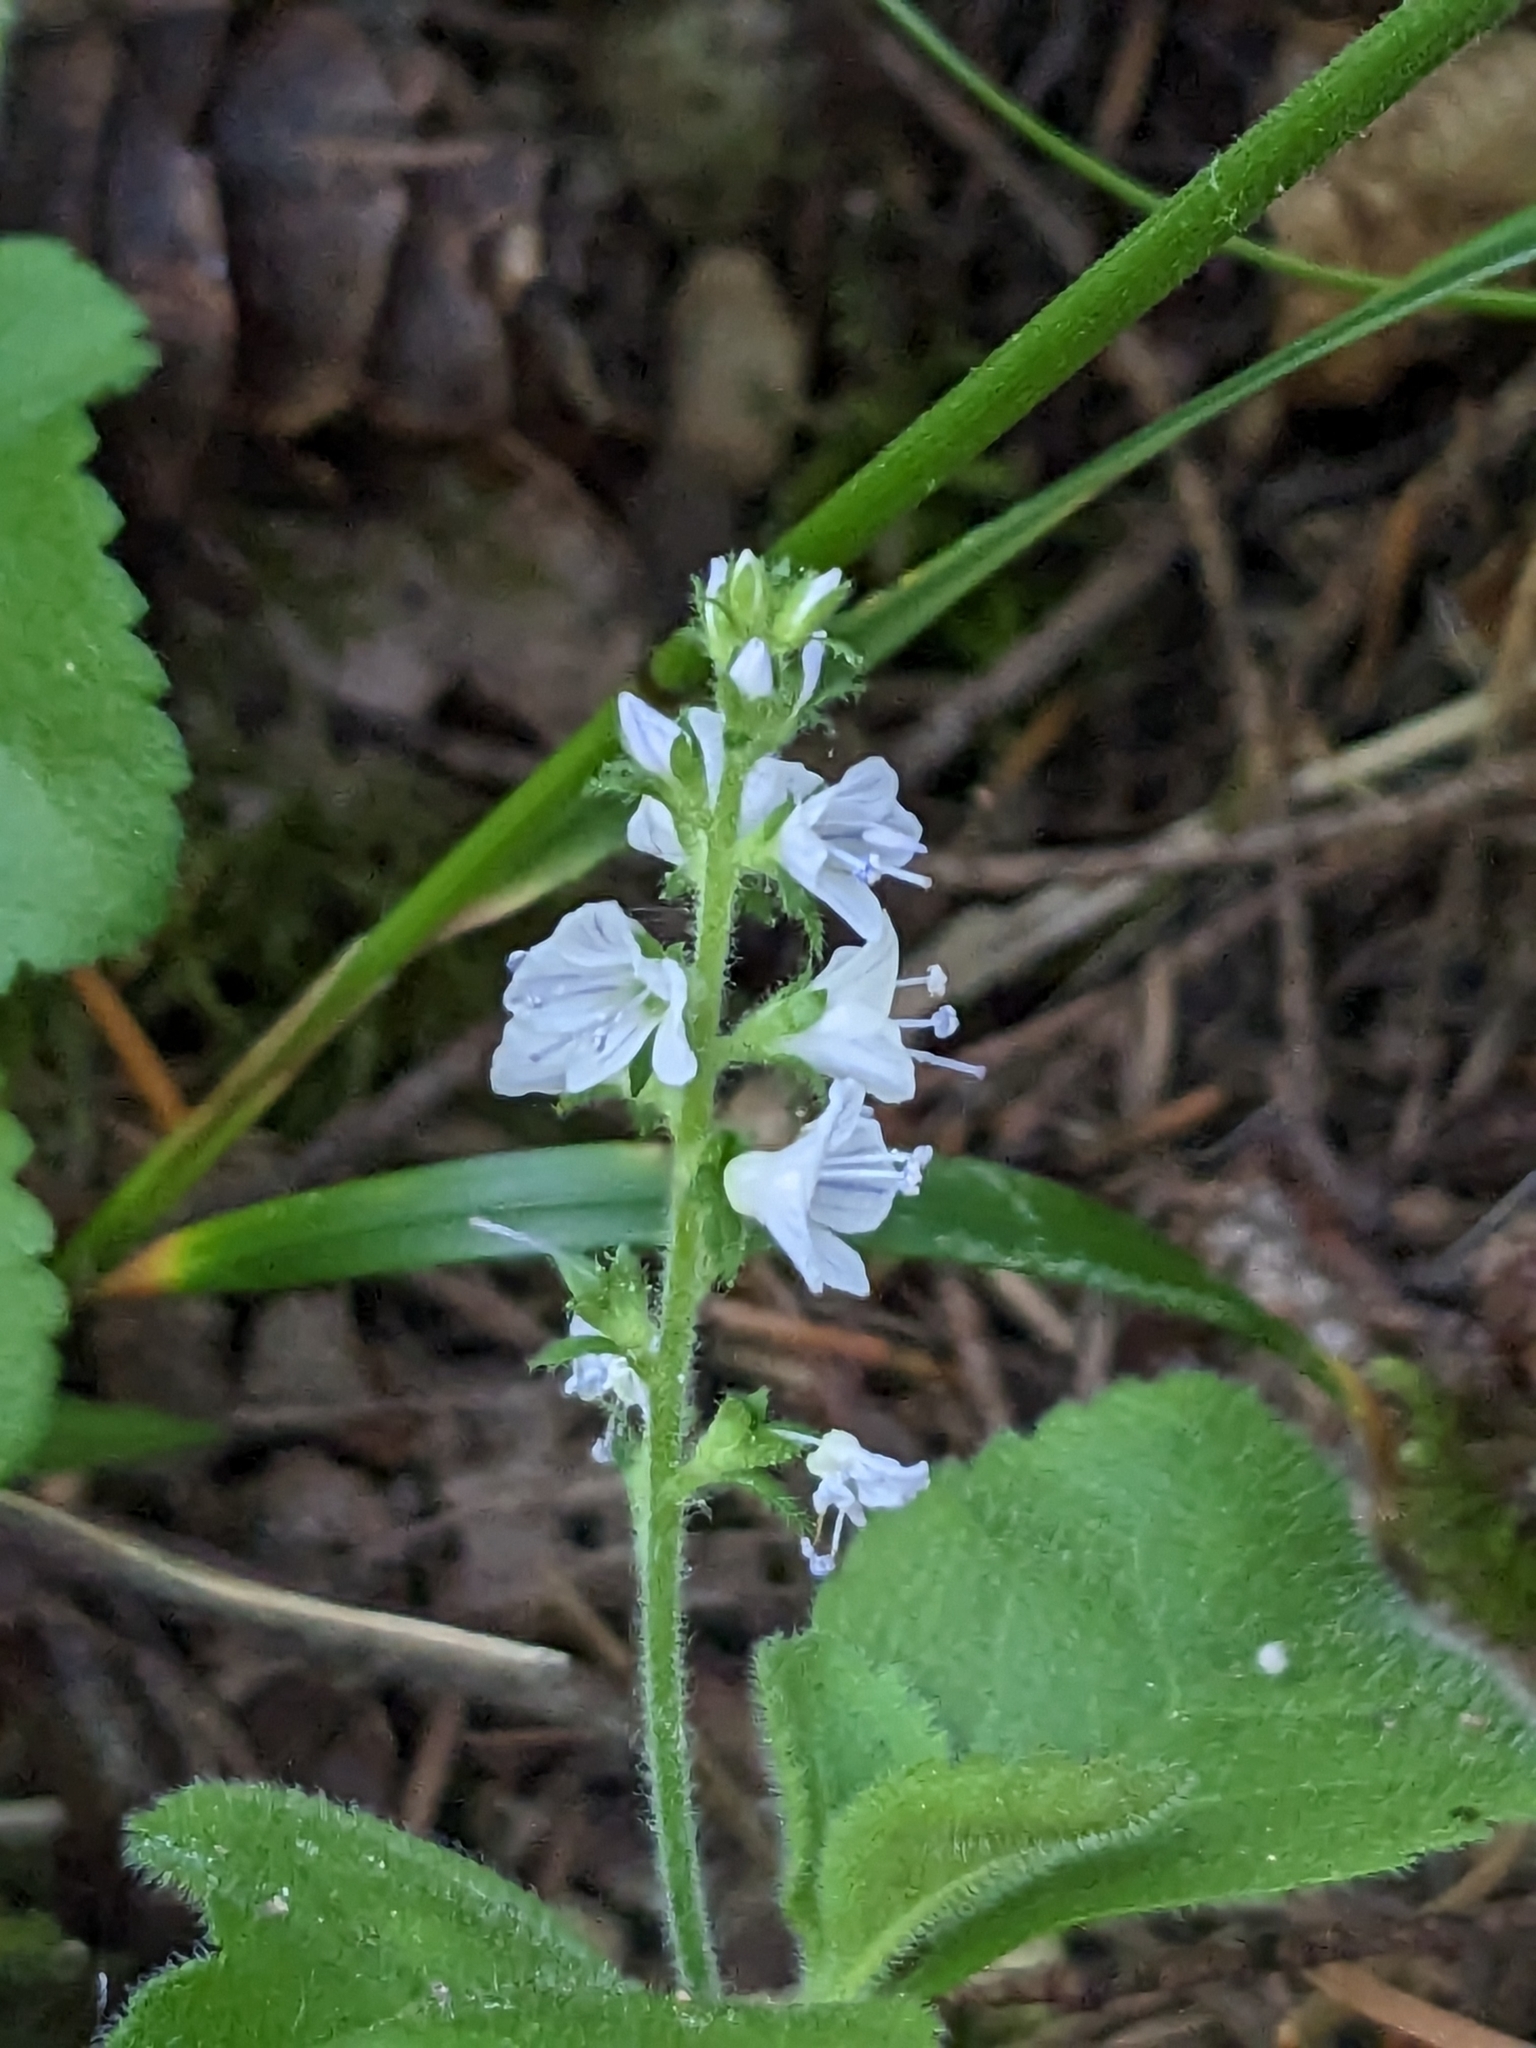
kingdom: Plantae
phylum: Tracheophyta
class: Magnoliopsida
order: Lamiales
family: Plantaginaceae
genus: Veronica
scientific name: Veronica officinalis
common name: Common speedwell
